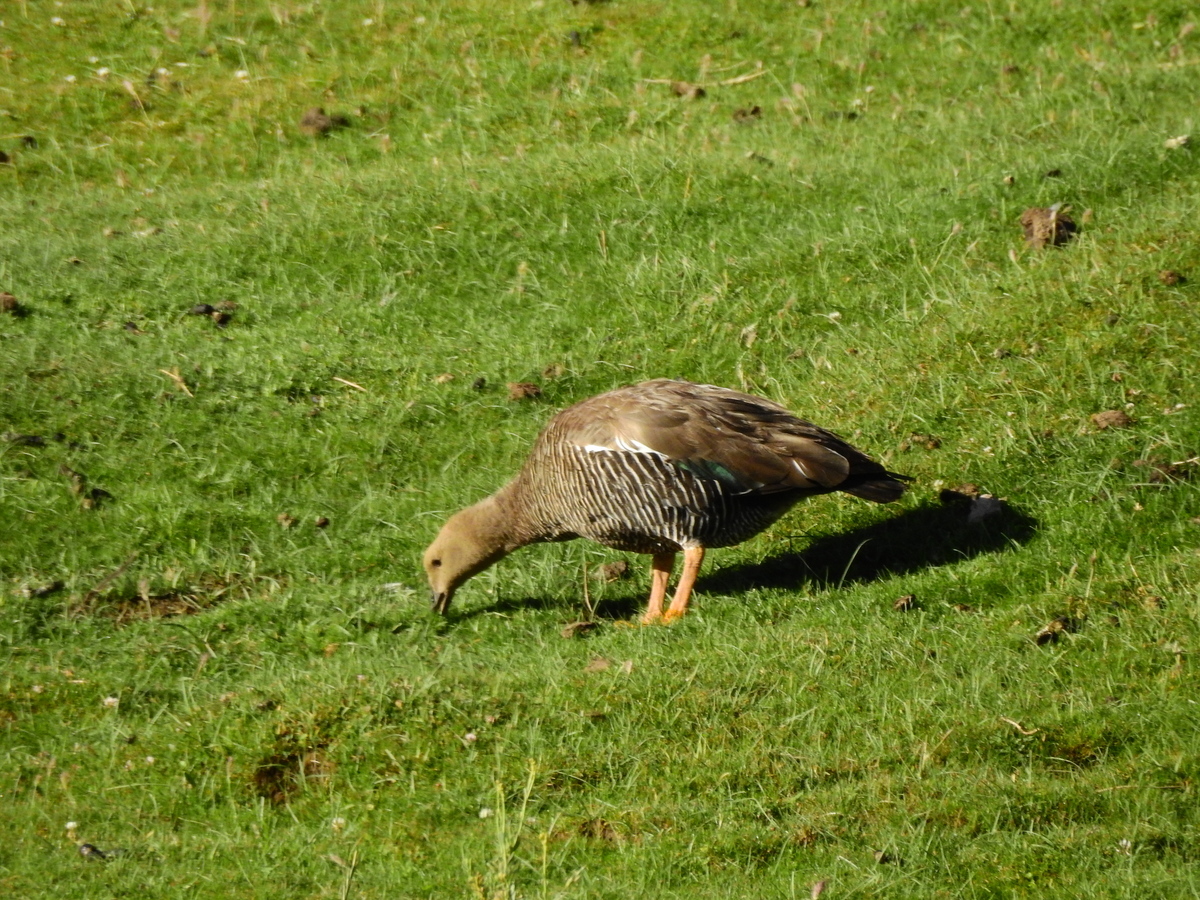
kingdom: Animalia
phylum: Chordata
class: Aves
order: Anseriformes
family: Anatidae
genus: Chloephaga
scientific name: Chloephaga picta
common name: Upland goose
